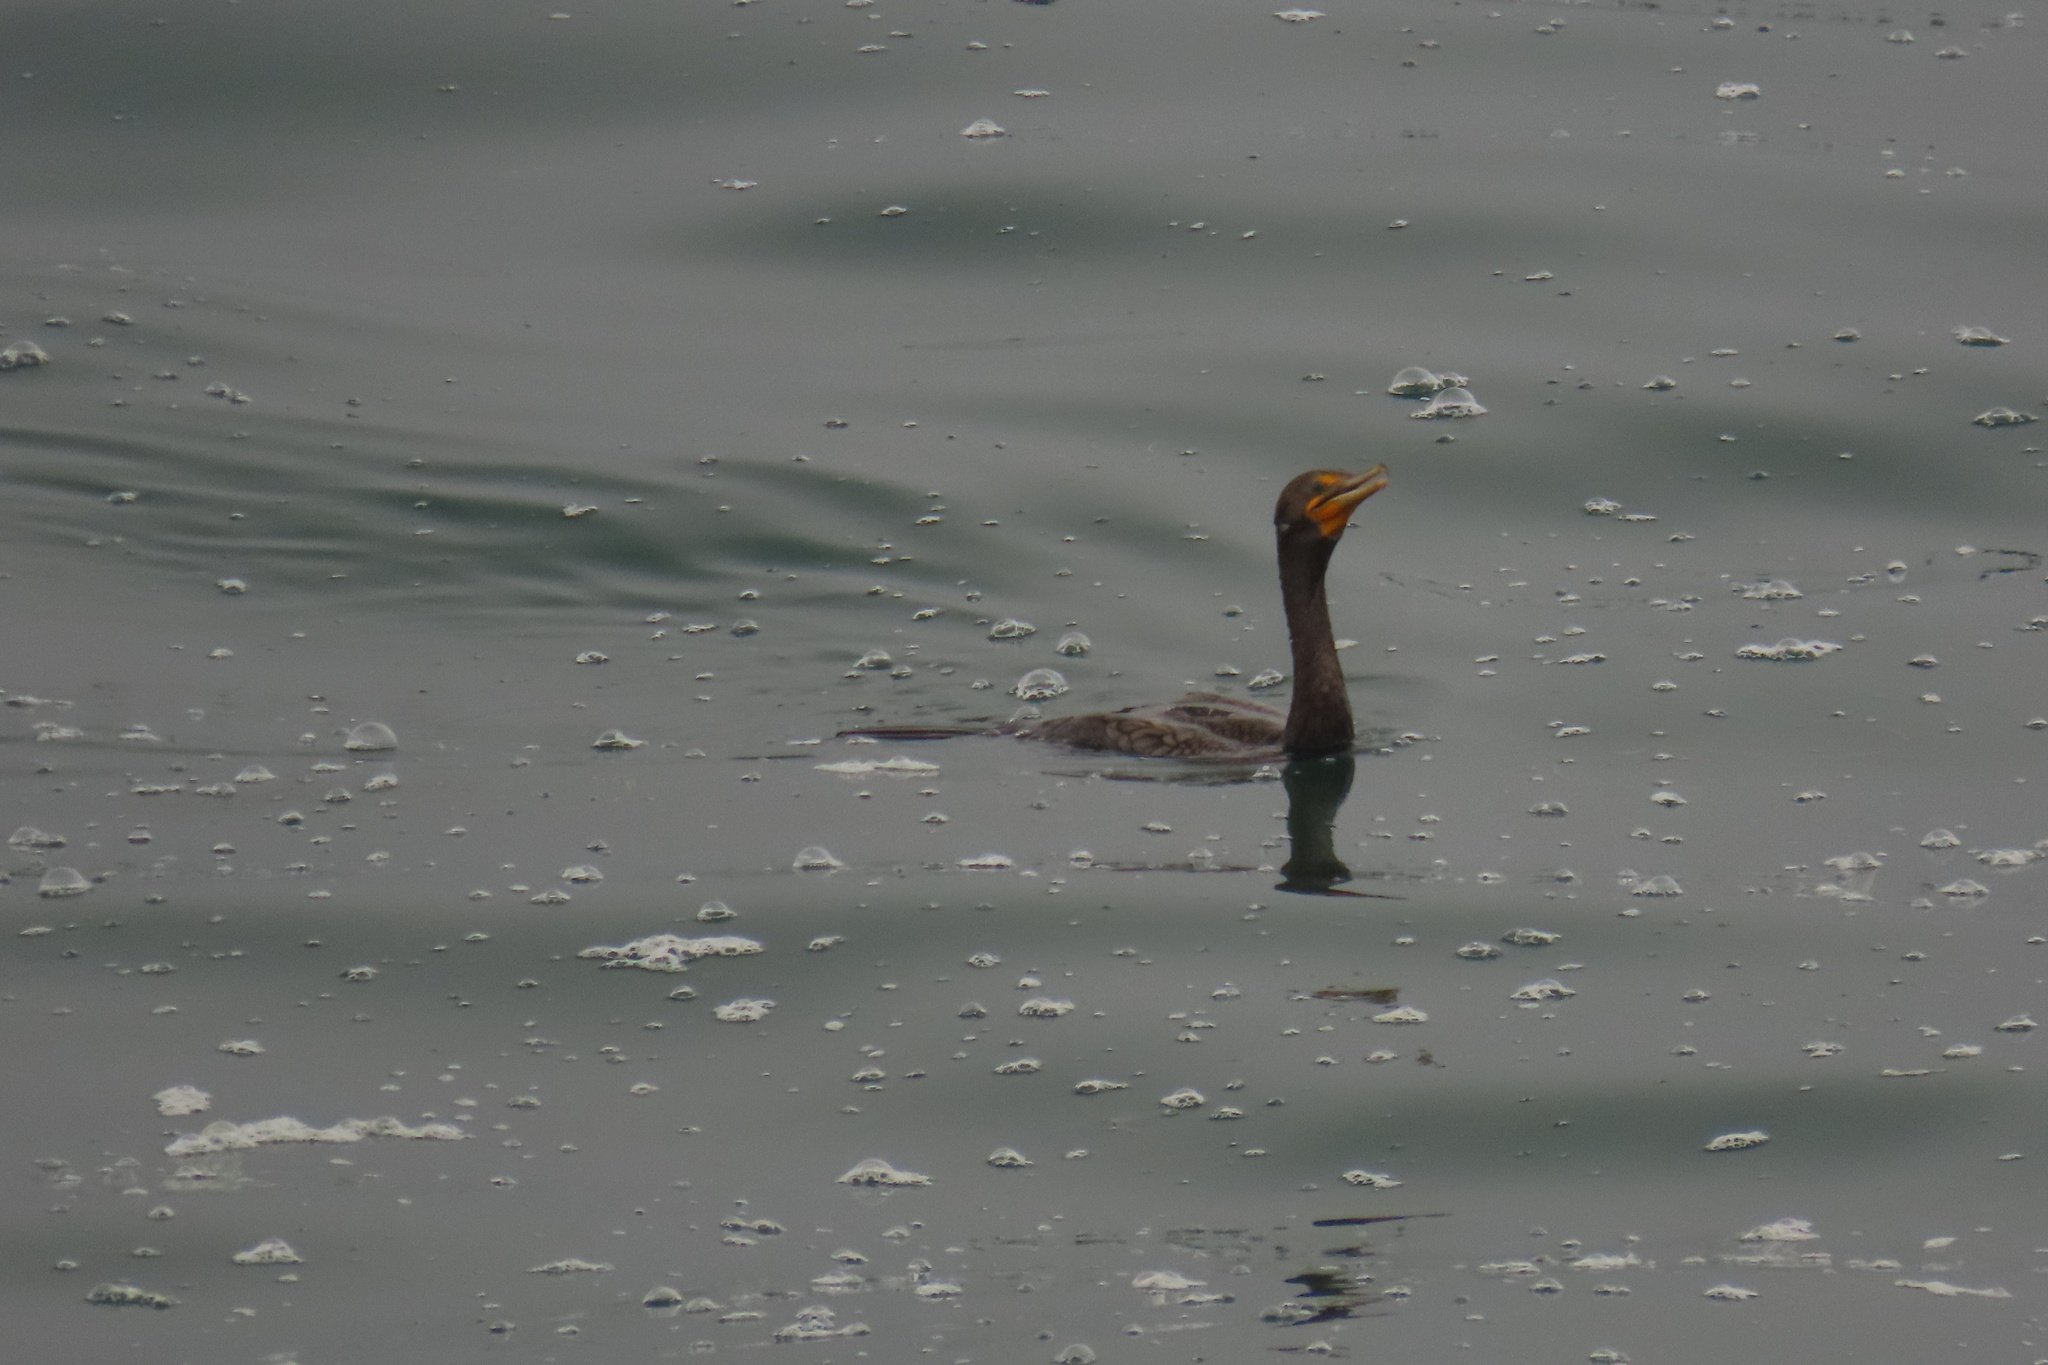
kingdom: Animalia
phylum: Chordata
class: Aves
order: Suliformes
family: Phalacrocoracidae
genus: Phalacrocorax
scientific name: Phalacrocorax auritus
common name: Double-crested cormorant
